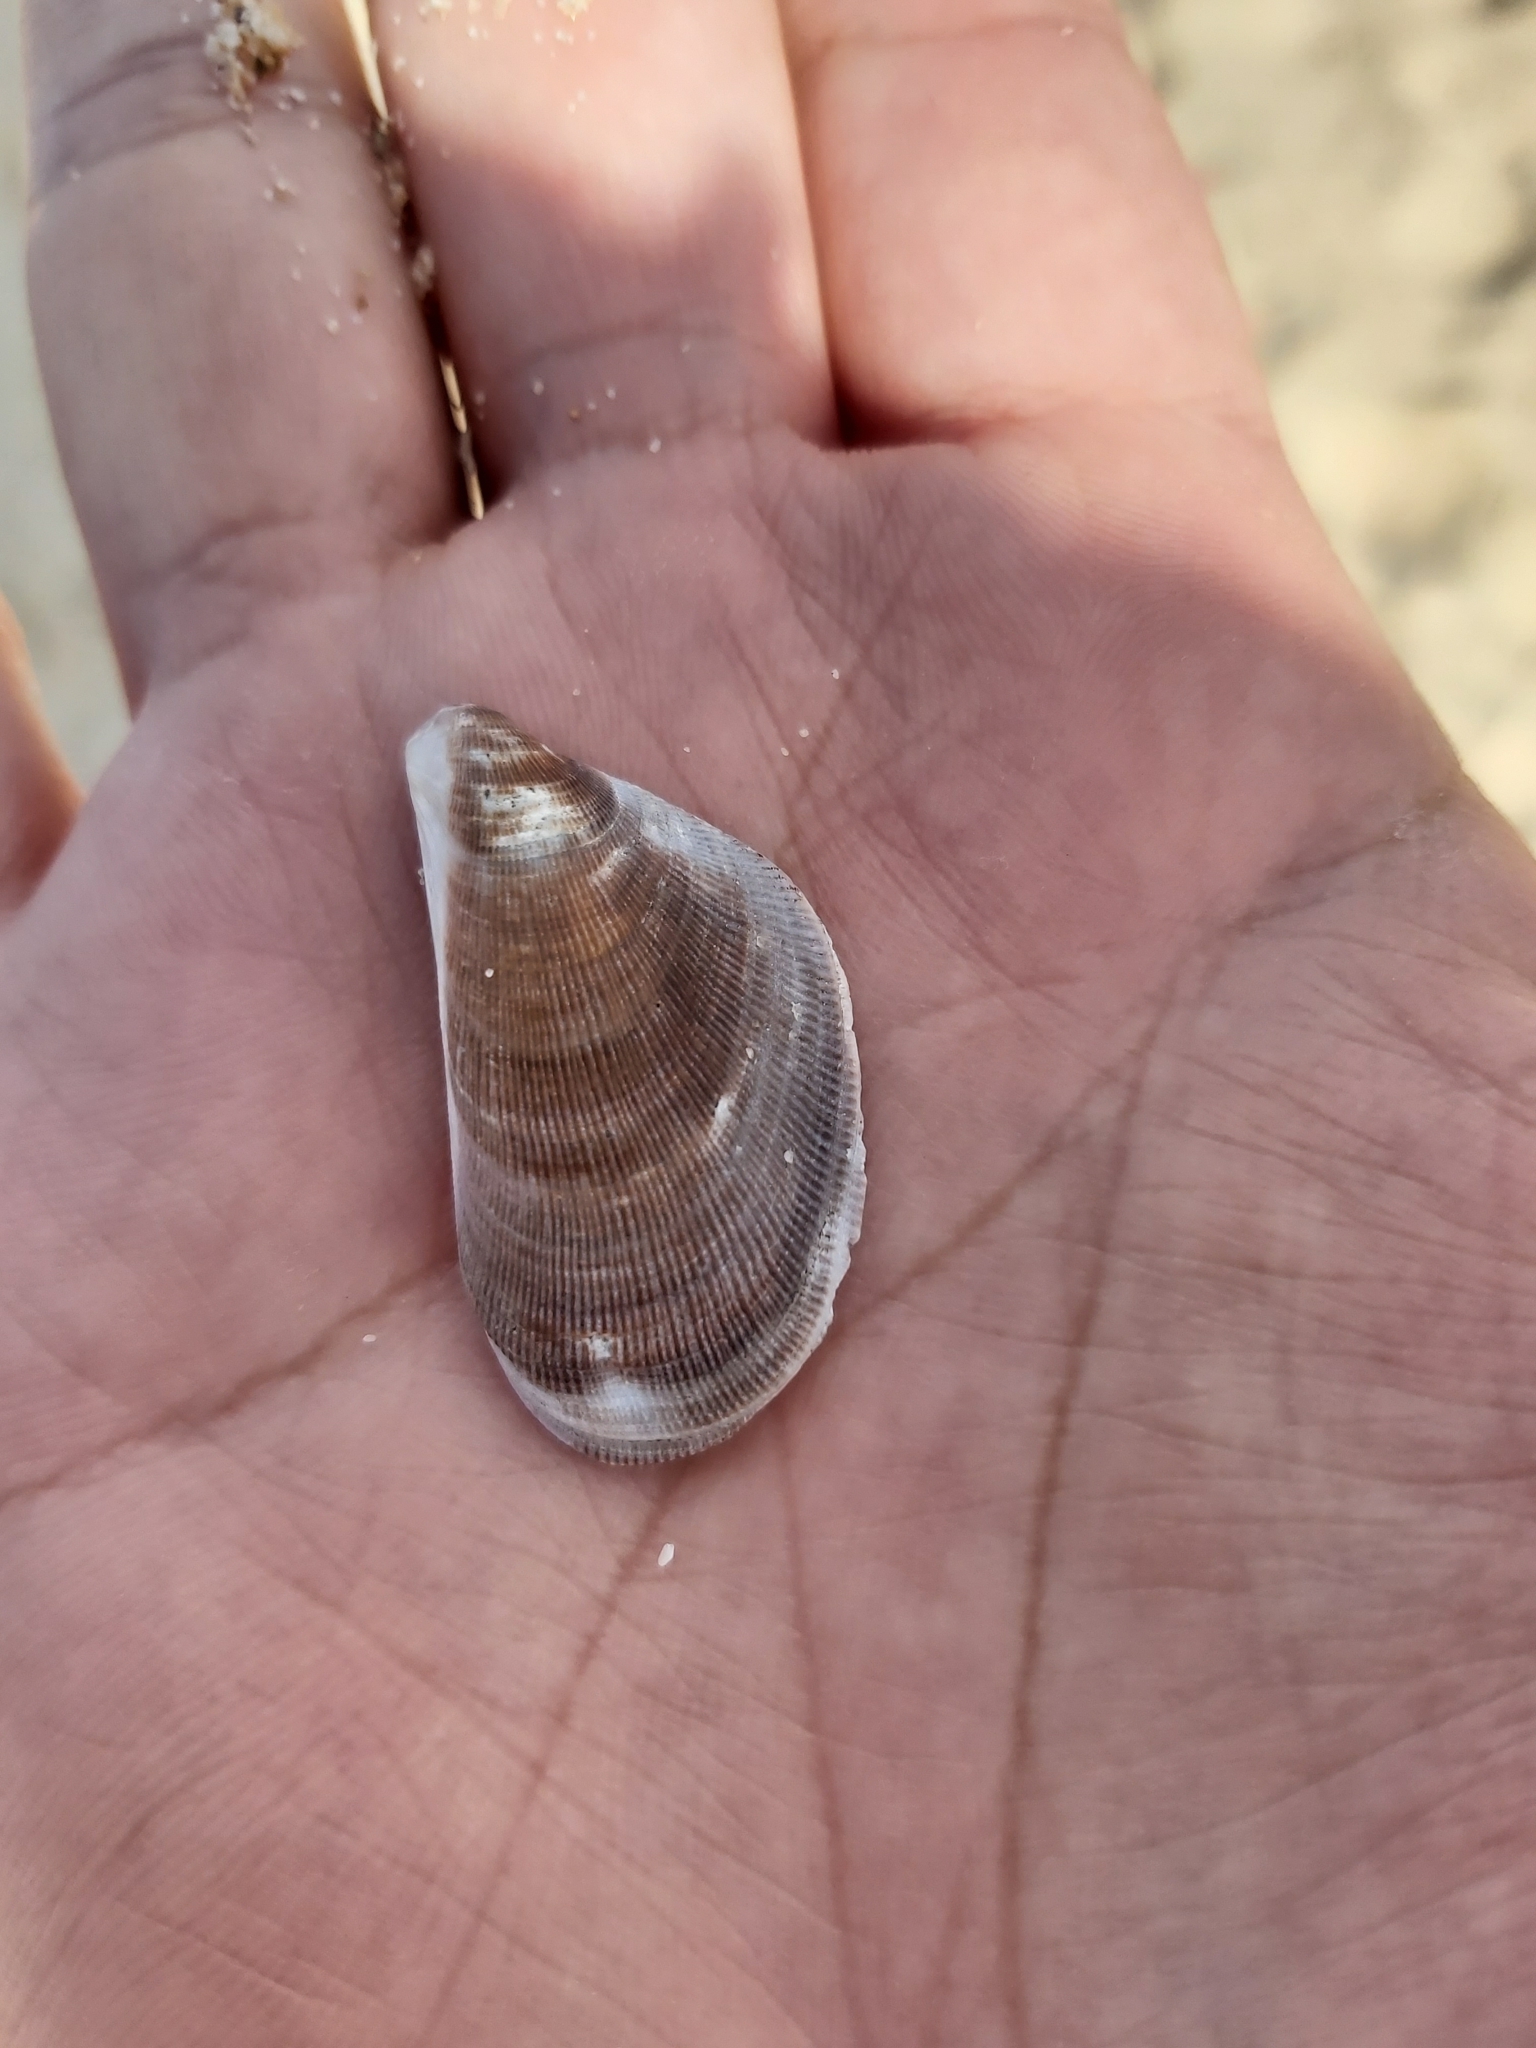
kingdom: Animalia
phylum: Mollusca
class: Bivalvia
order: Mytilida
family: Mytilidae
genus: Trichomya
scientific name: Trichomya hirsuta
